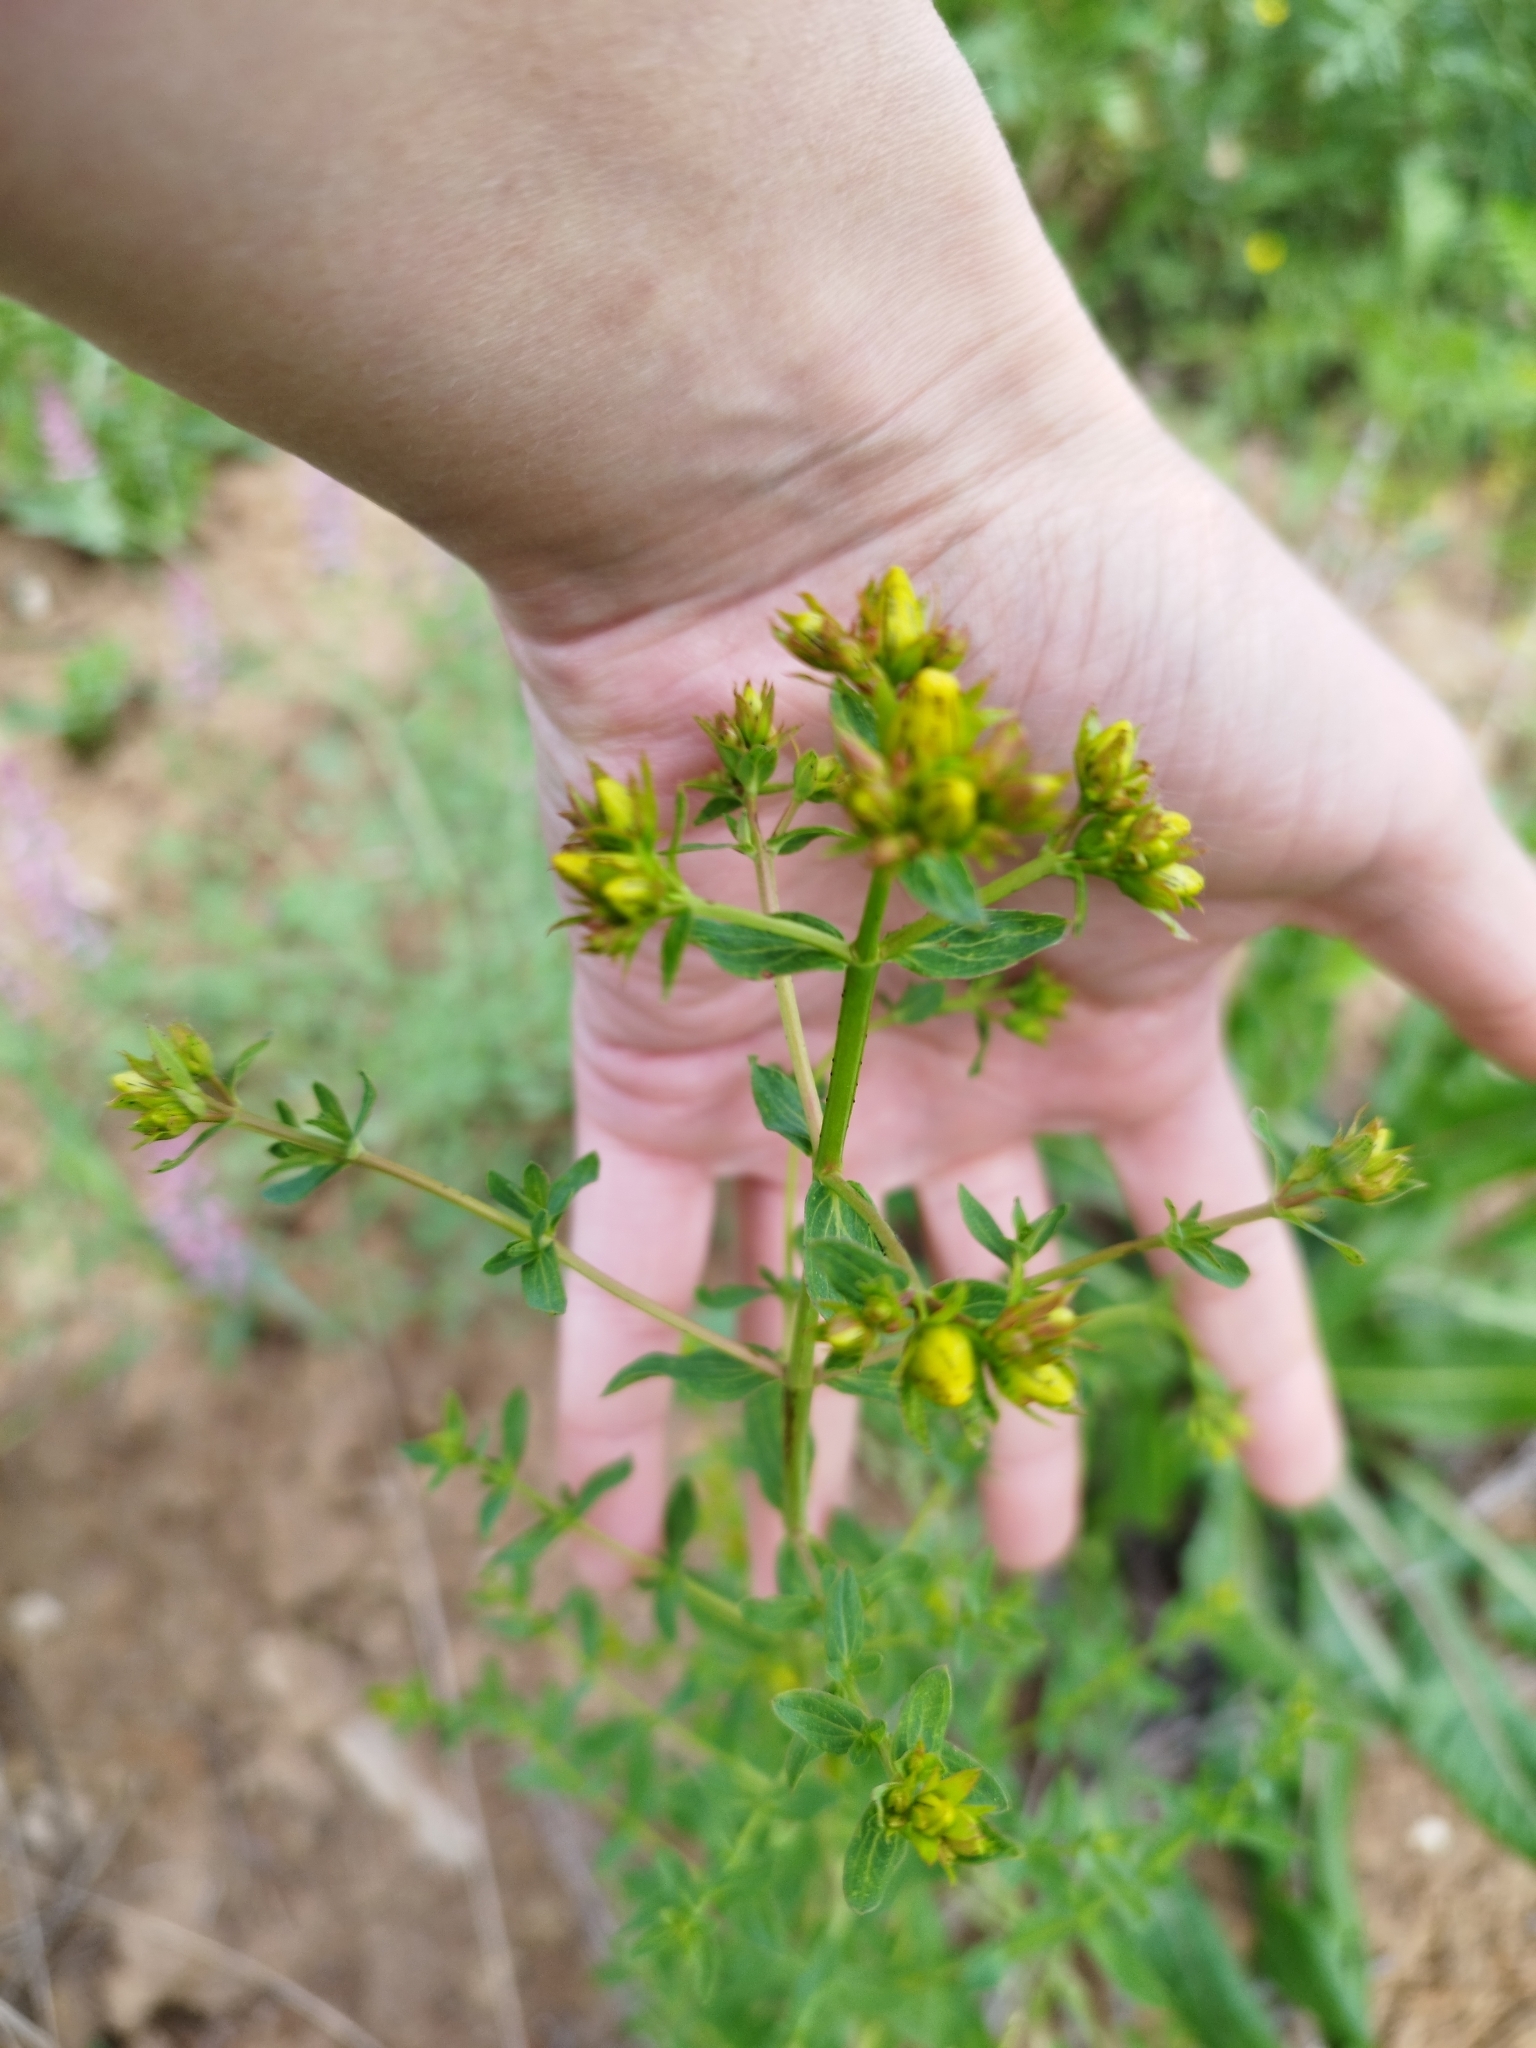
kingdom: Plantae
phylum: Tracheophyta
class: Magnoliopsida
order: Malpighiales
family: Hypericaceae
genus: Hypericum
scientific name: Hypericum perforatum
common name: Common st. johnswort
